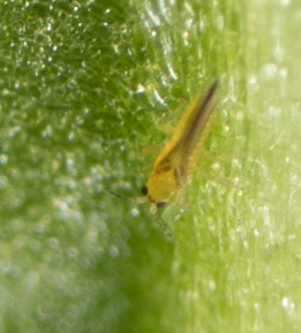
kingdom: Animalia
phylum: Arthropoda
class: Insecta
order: Thysanoptera
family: Thripidae
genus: Scirtothrips
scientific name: Scirtothrips dorsalis
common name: Thrips
